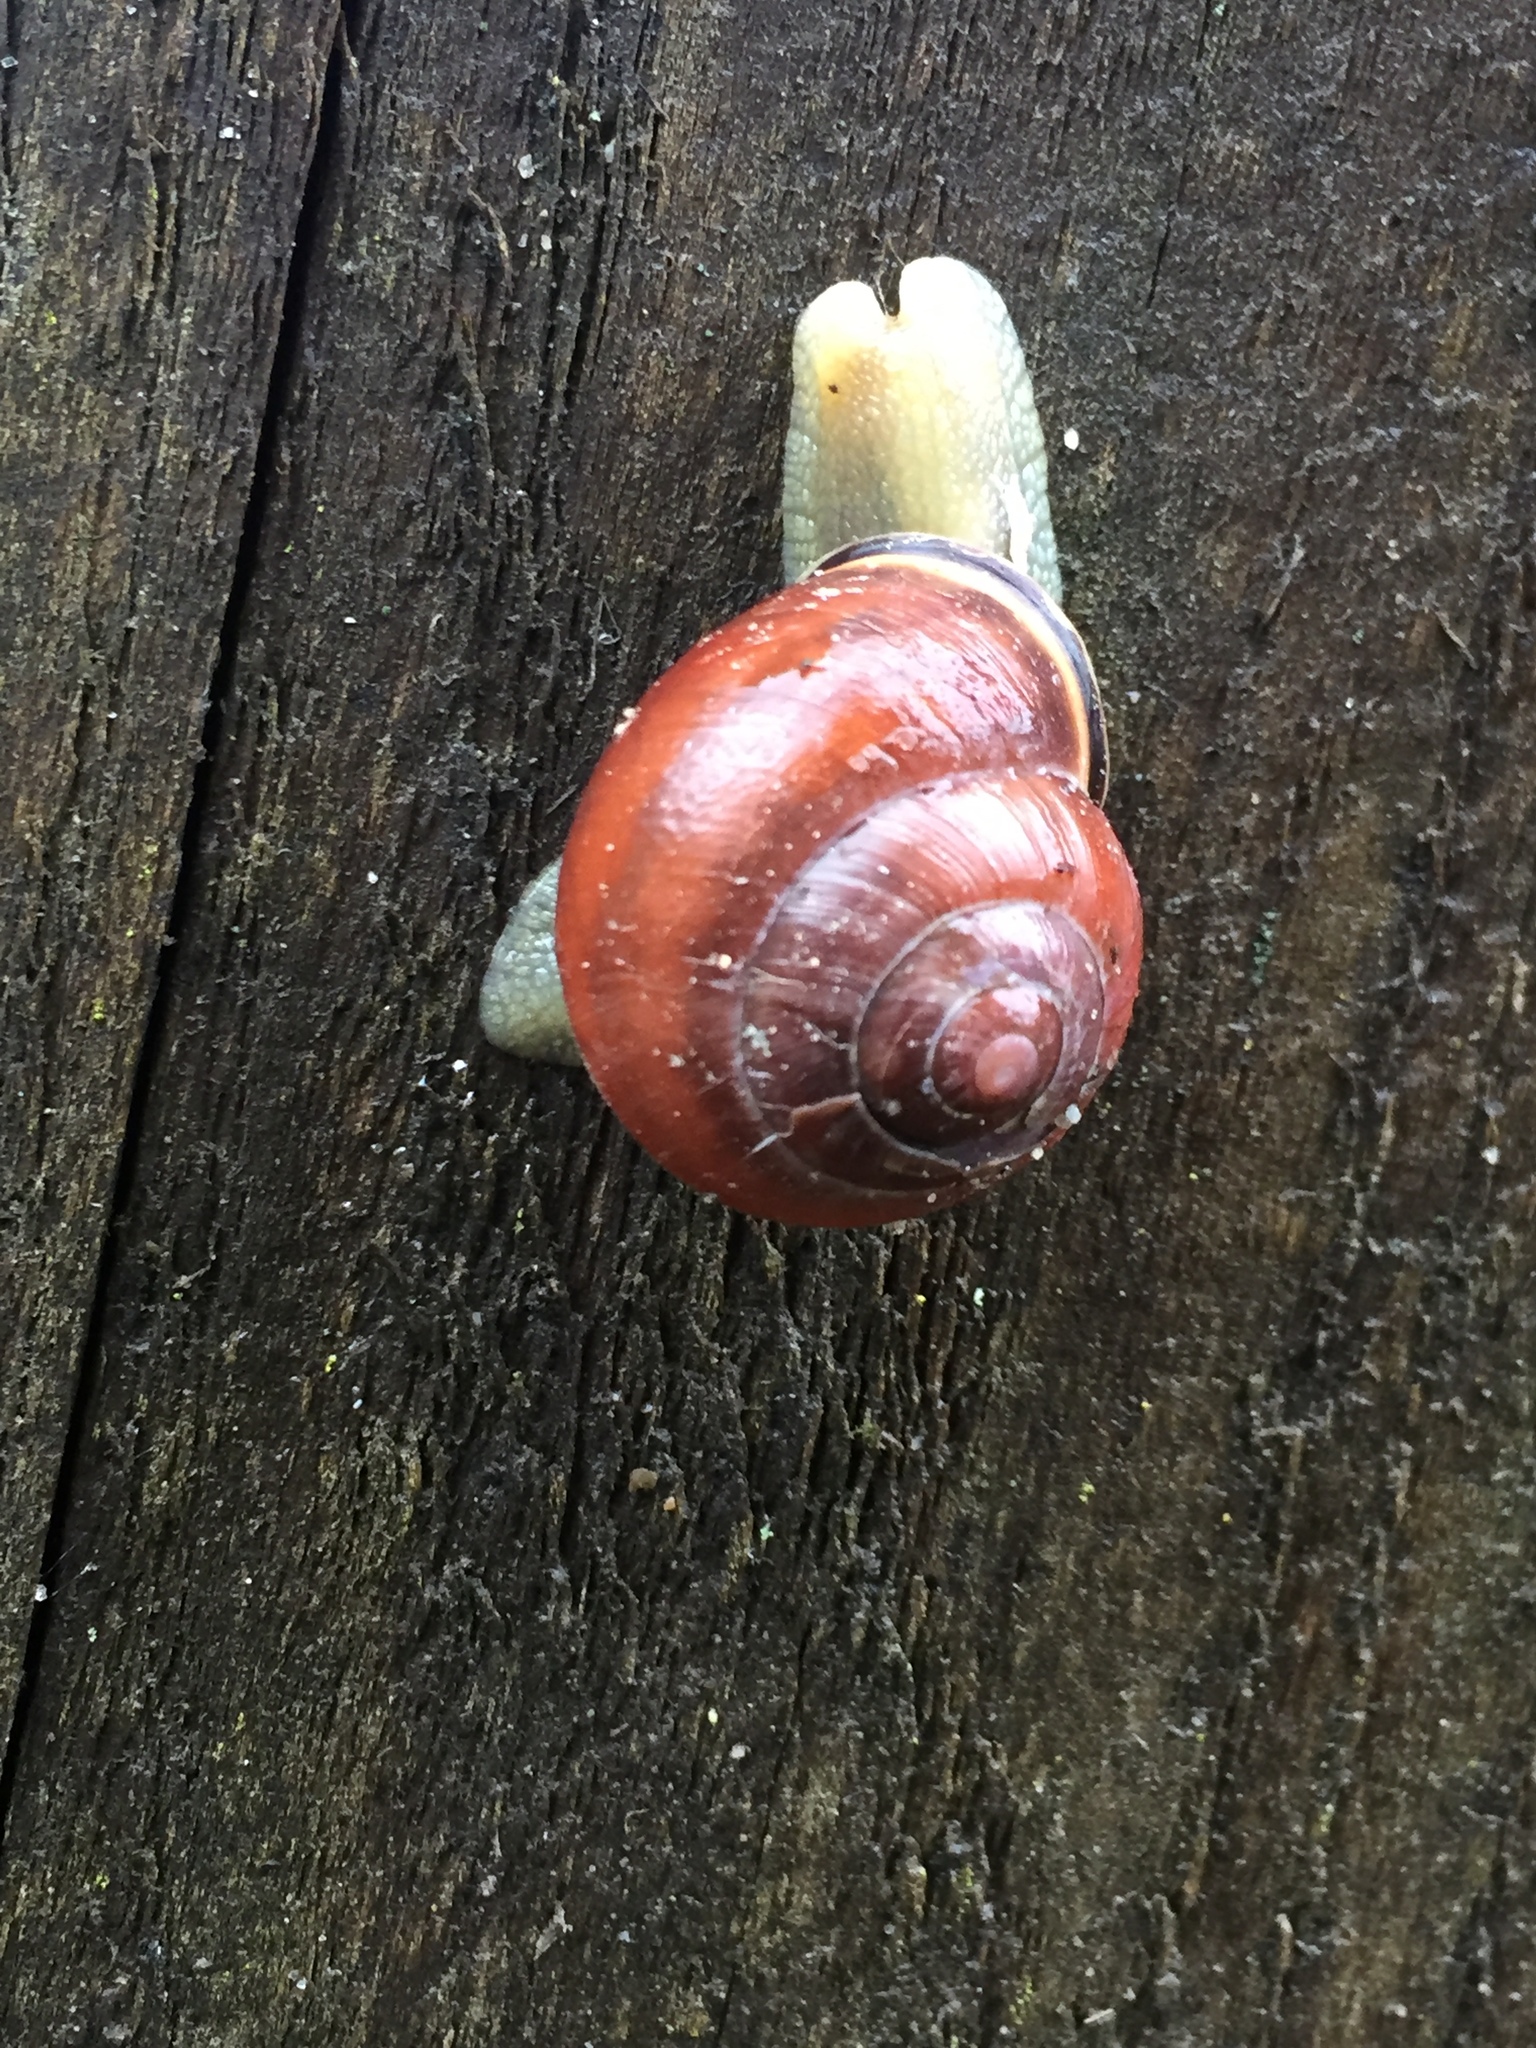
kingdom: Animalia
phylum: Mollusca
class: Gastropoda
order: Stylommatophora
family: Helicidae
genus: Cepaea
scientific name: Cepaea nemoralis
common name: Grovesnail
